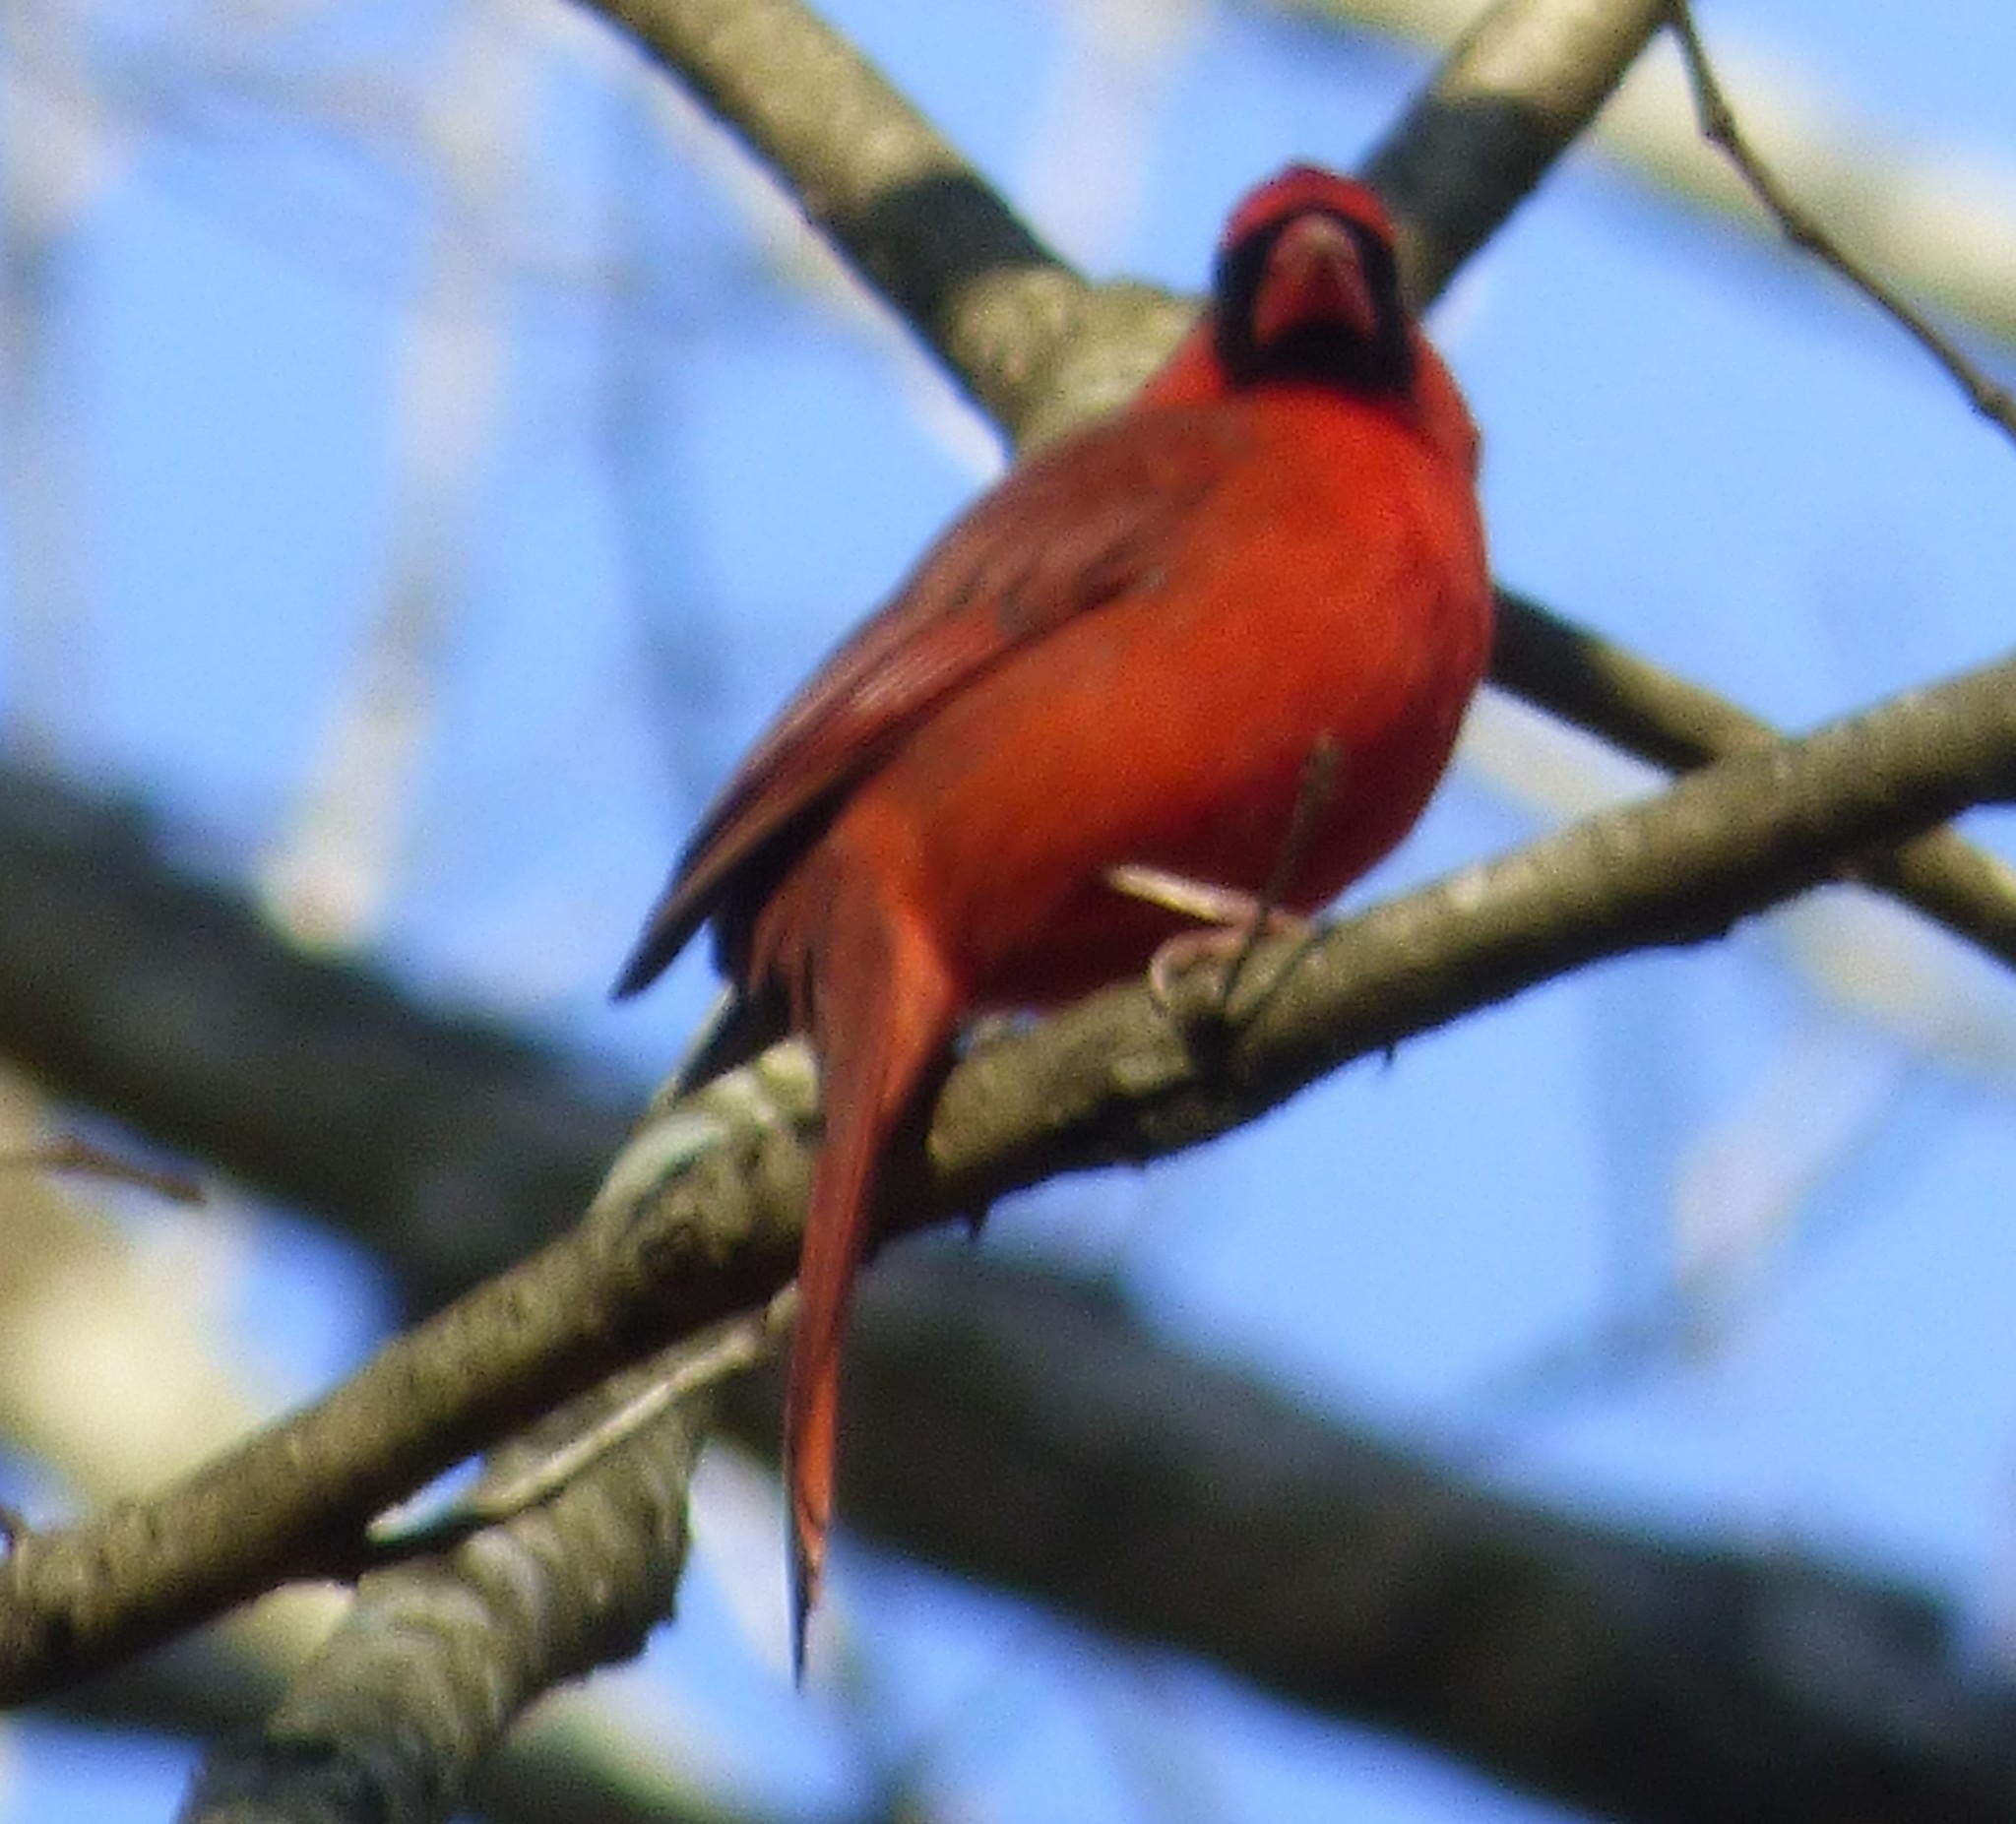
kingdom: Animalia
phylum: Chordata
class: Aves
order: Passeriformes
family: Cardinalidae
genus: Cardinalis
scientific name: Cardinalis cardinalis
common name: Northern cardinal
